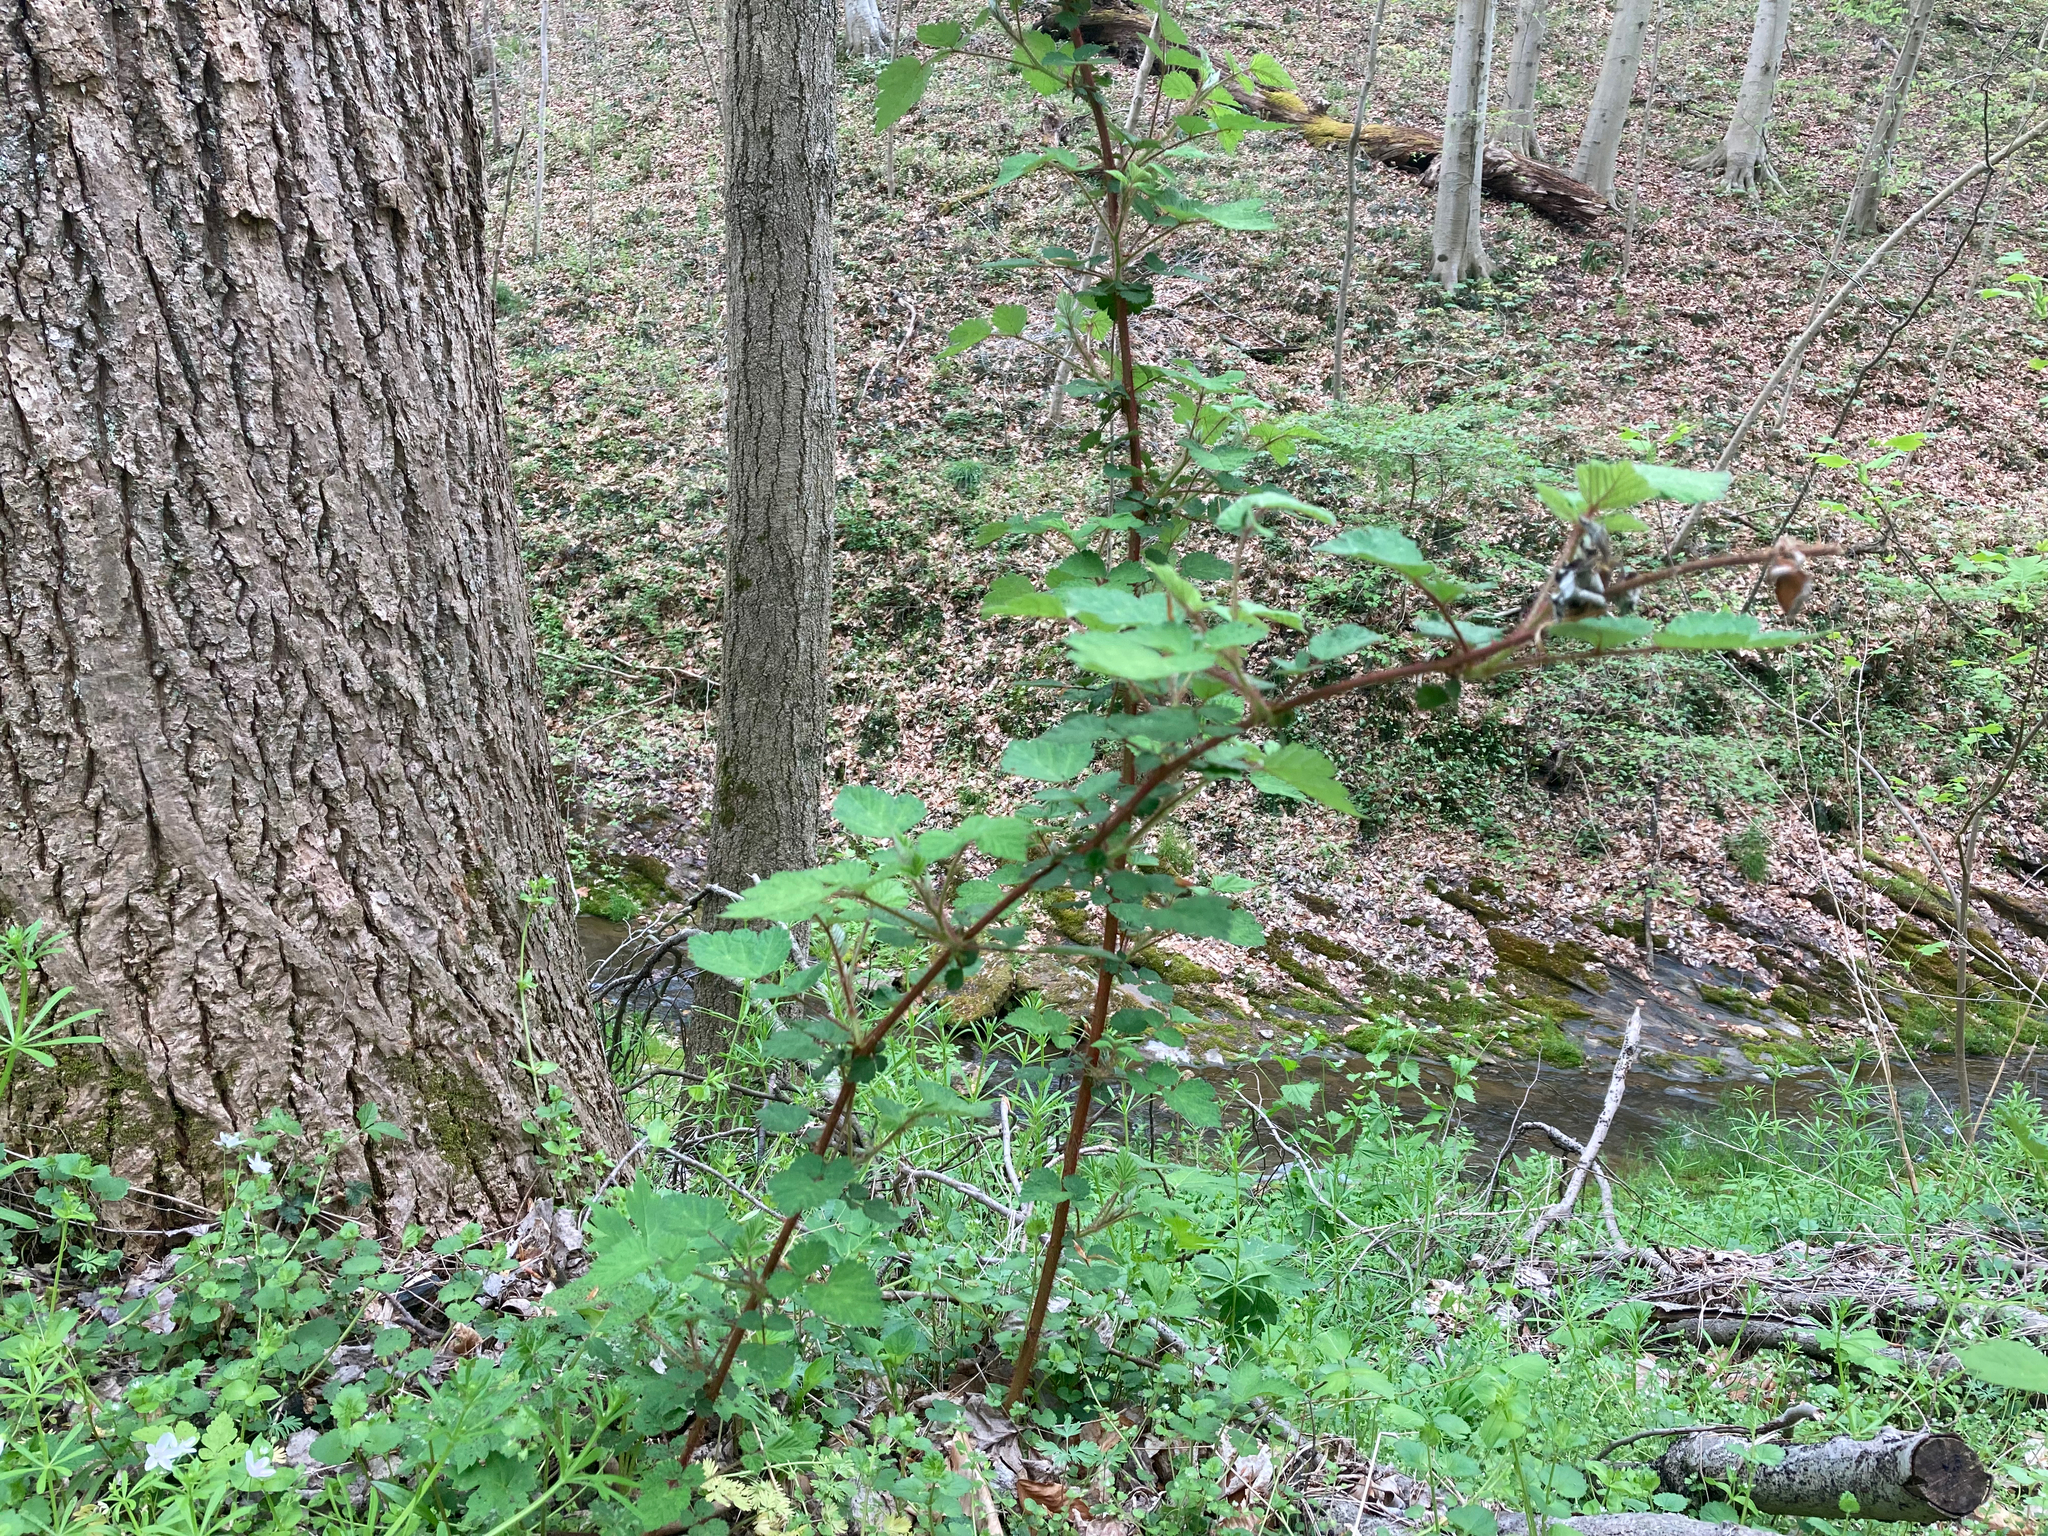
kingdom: Plantae
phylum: Tracheophyta
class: Magnoliopsida
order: Rosales
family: Rosaceae
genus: Rubus
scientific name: Rubus phoenicolasius
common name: Japanese wineberry
